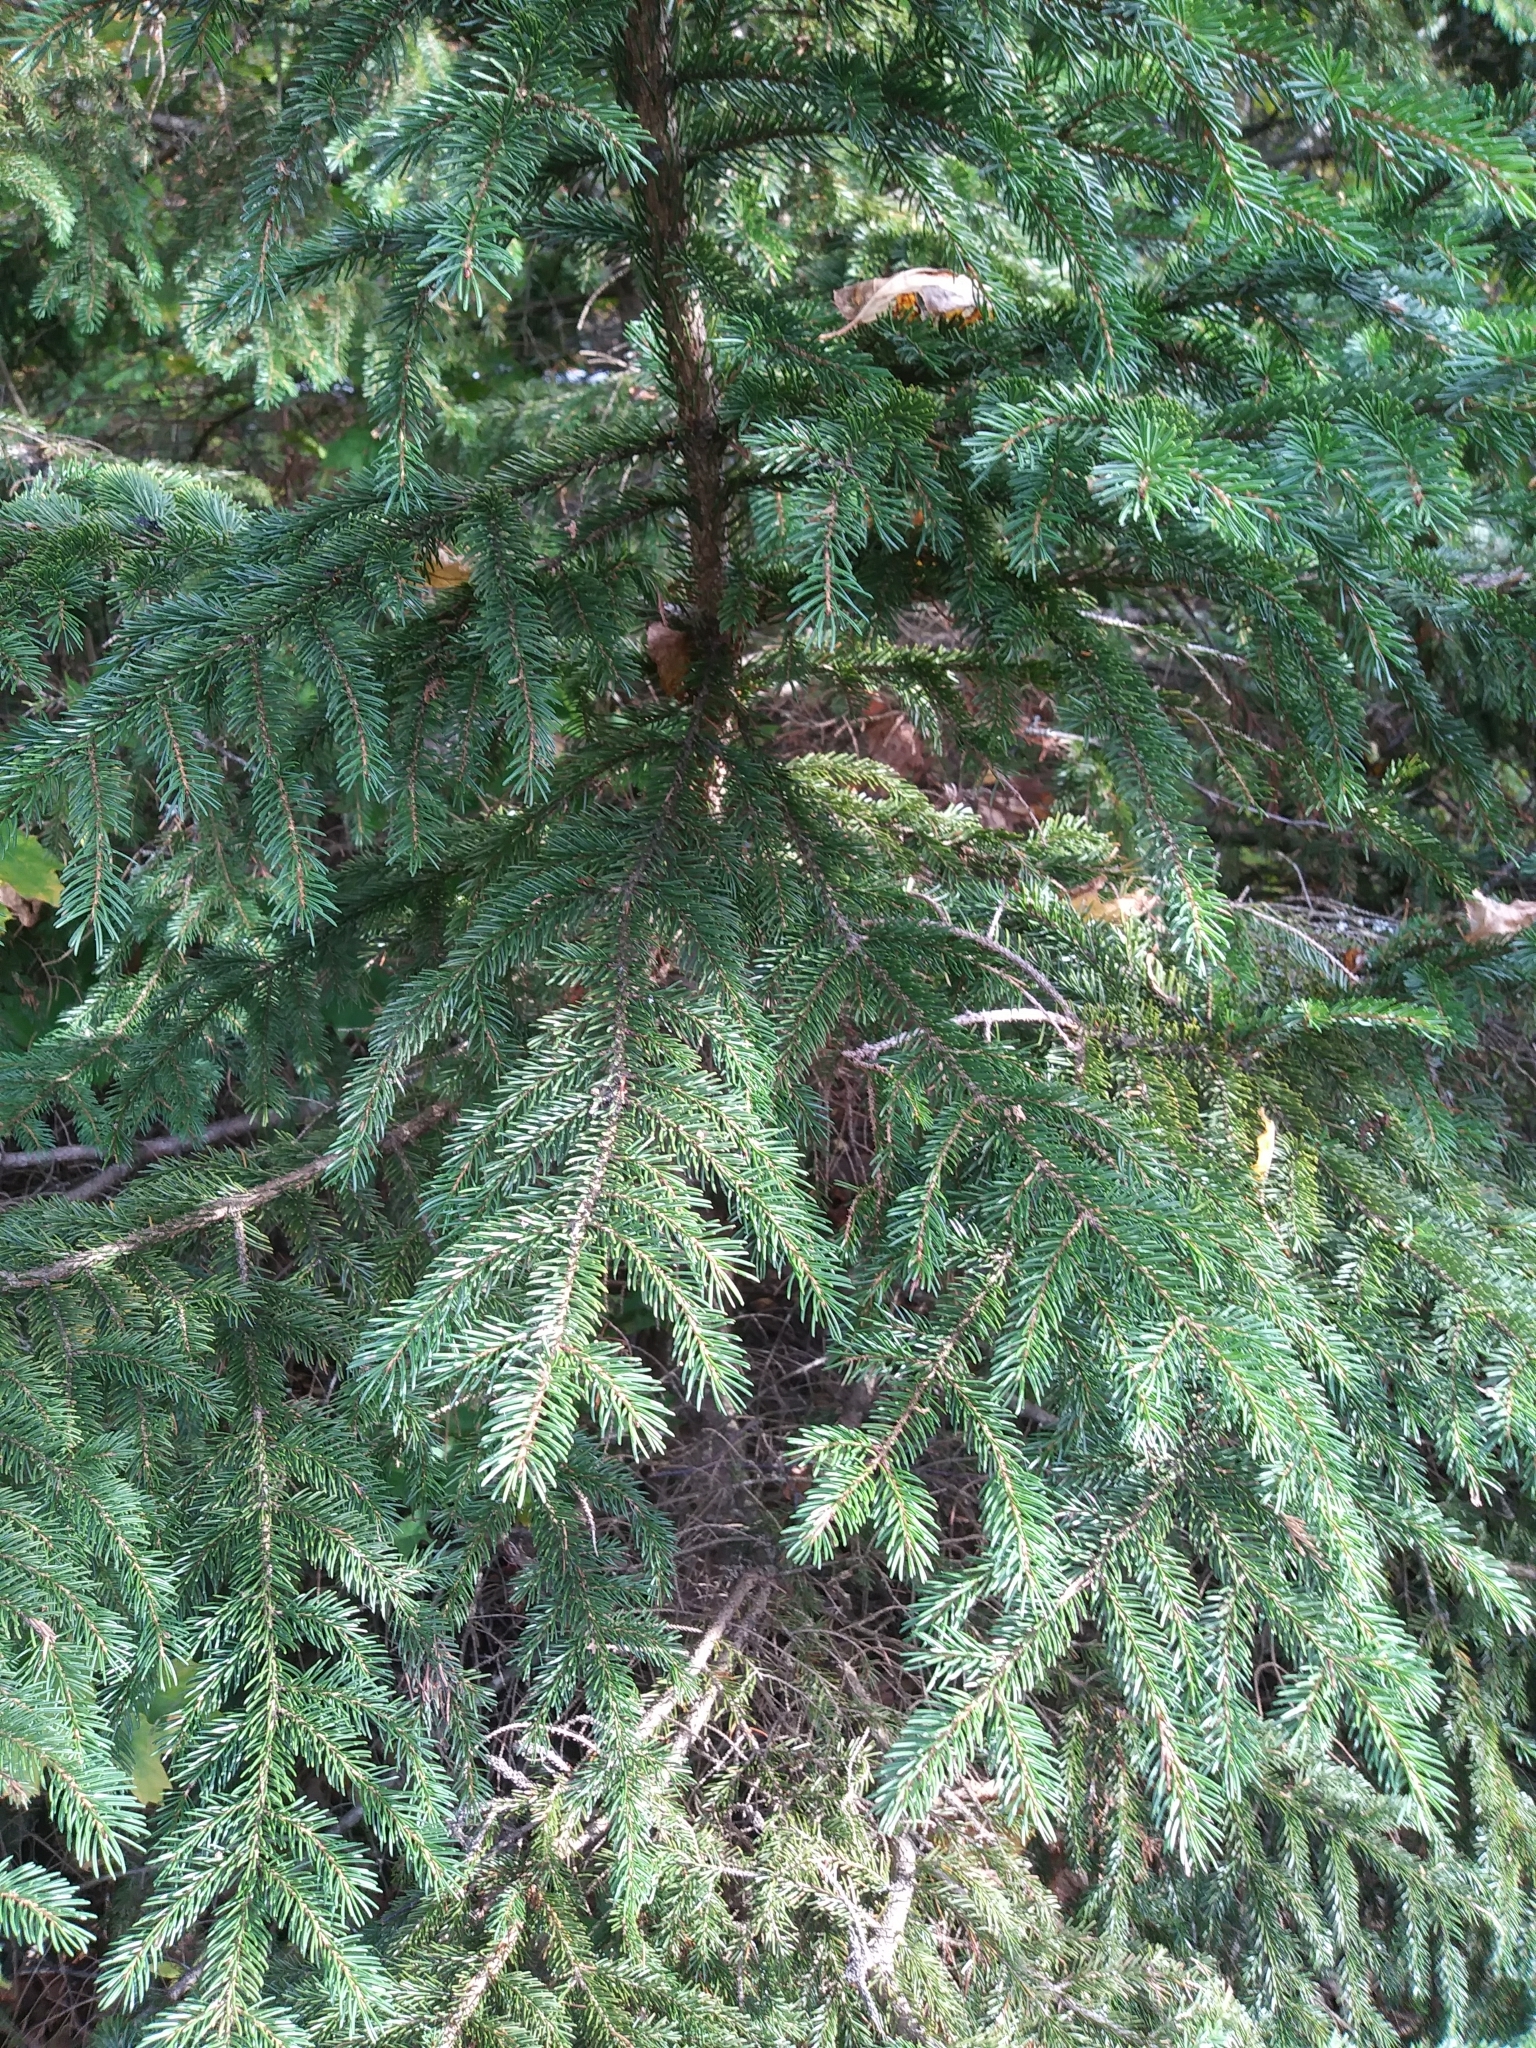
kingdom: Plantae
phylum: Tracheophyta
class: Pinopsida
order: Pinales
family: Pinaceae
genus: Picea
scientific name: Picea rubens
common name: Red spruce
